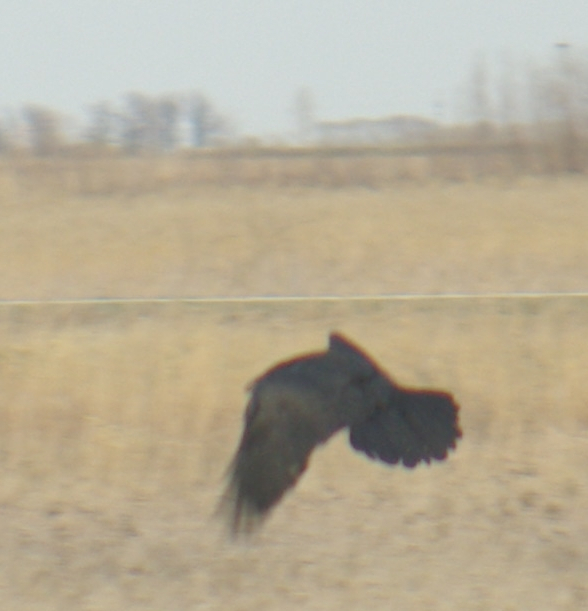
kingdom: Animalia
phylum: Chordata
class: Aves
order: Passeriformes
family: Corvidae
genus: Corvus
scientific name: Corvus corax
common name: Common raven
